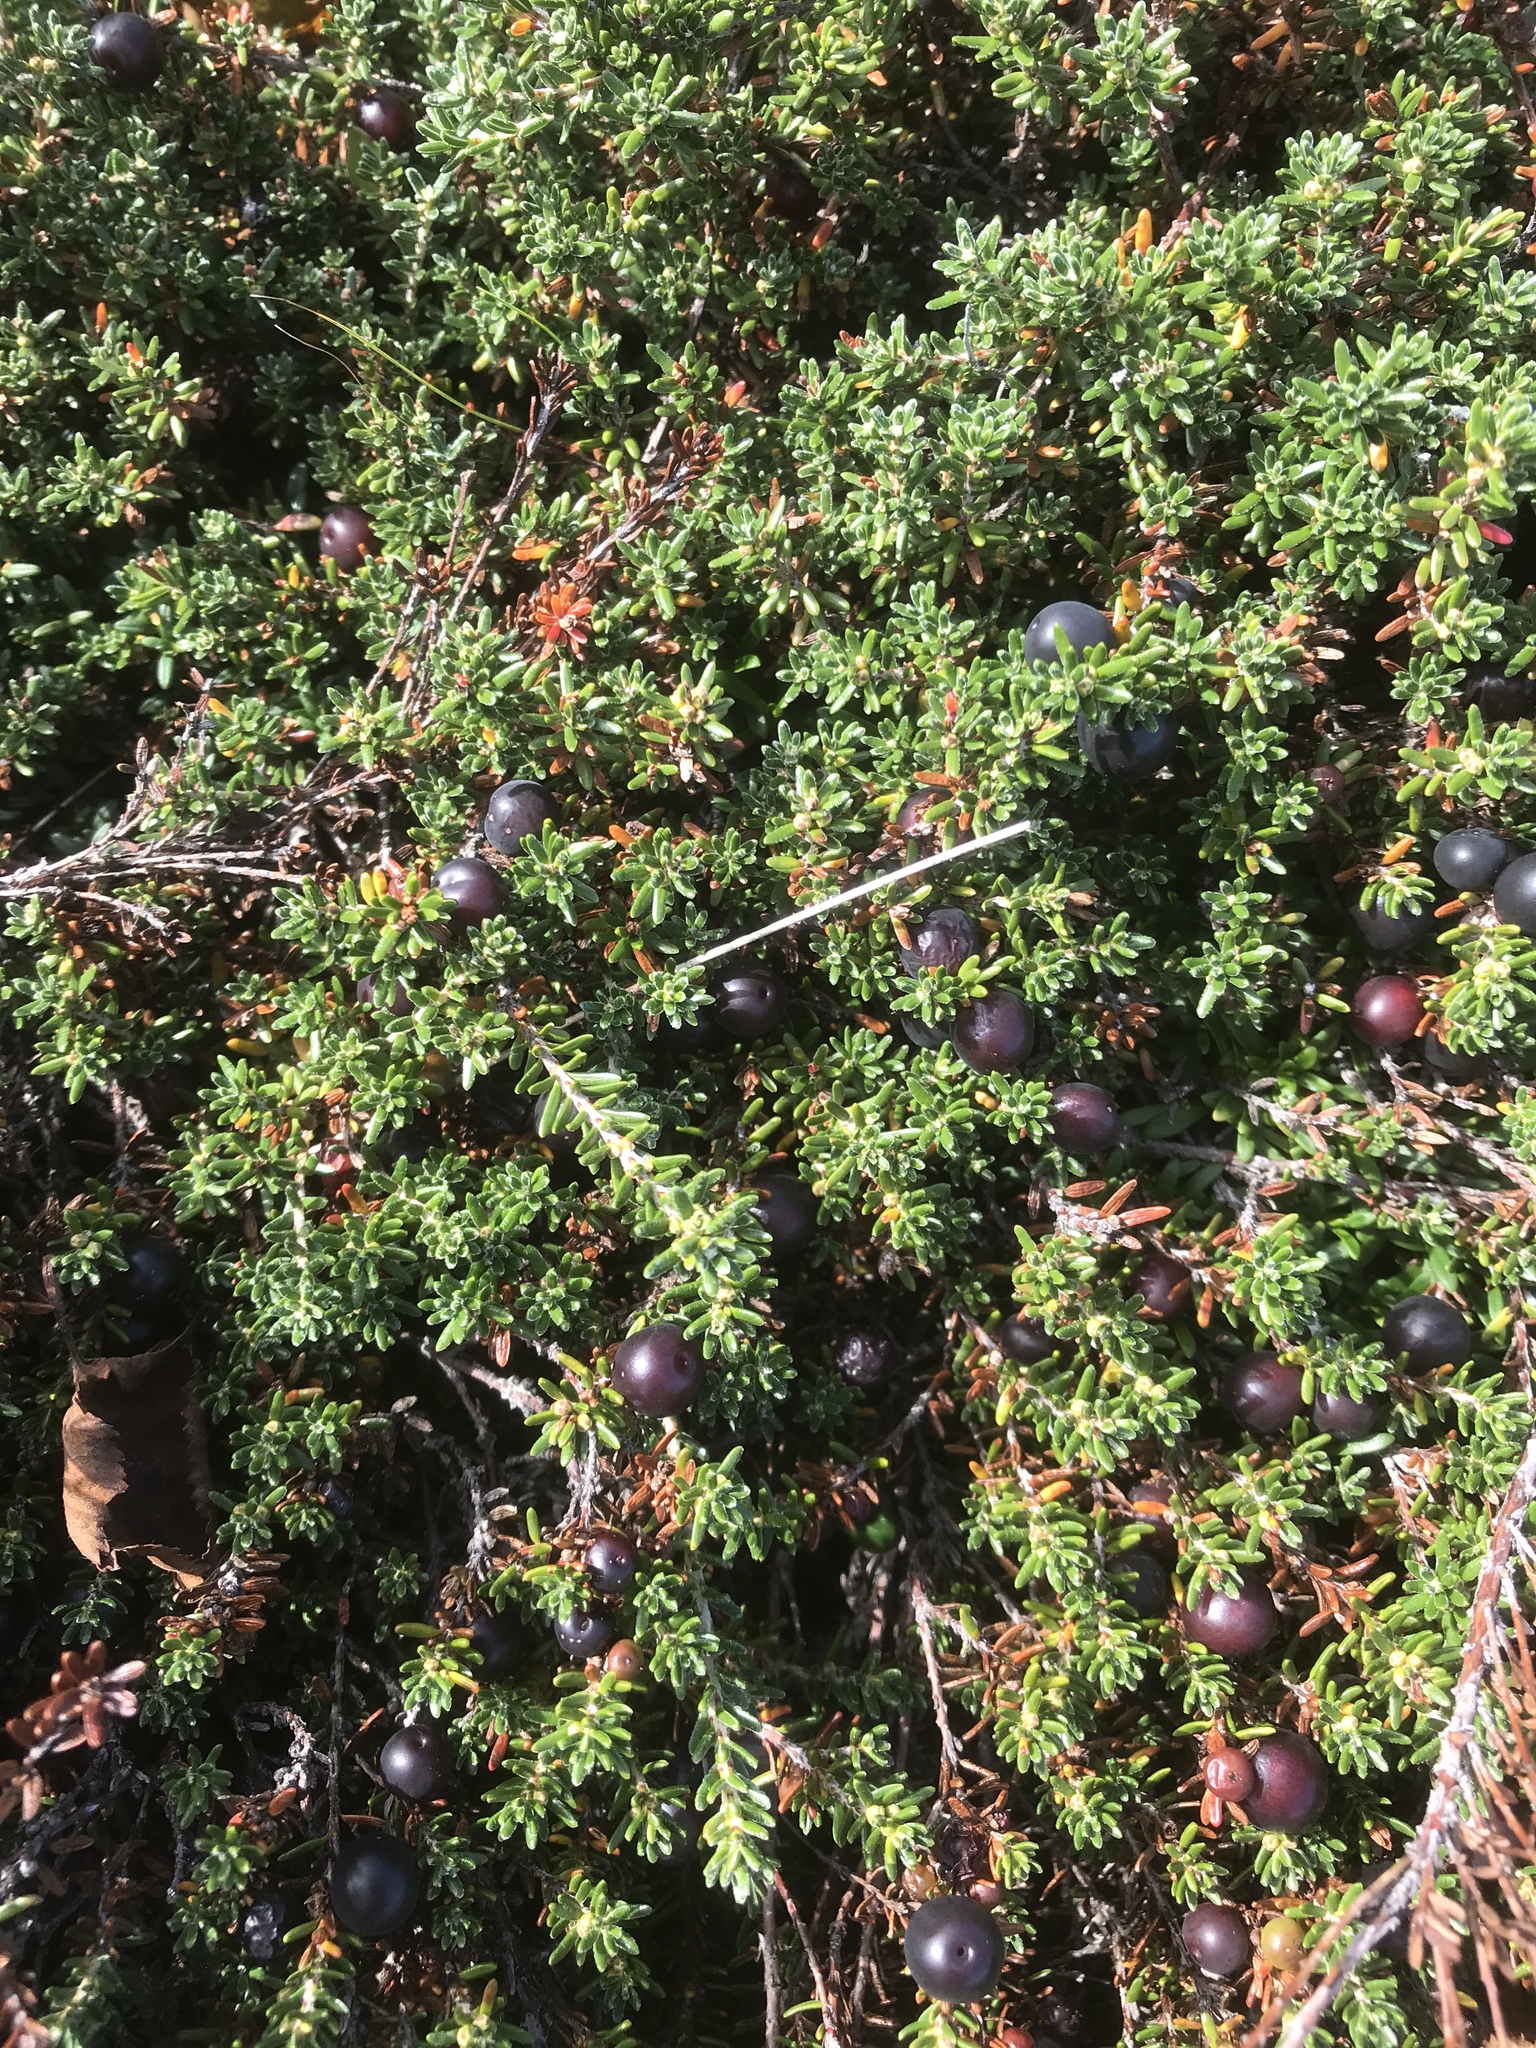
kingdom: Plantae
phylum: Tracheophyta
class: Magnoliopsida
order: Ericales
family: Ericaceae
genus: Empetrum
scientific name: Empetrum atropurpureum
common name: Purple crowberry
